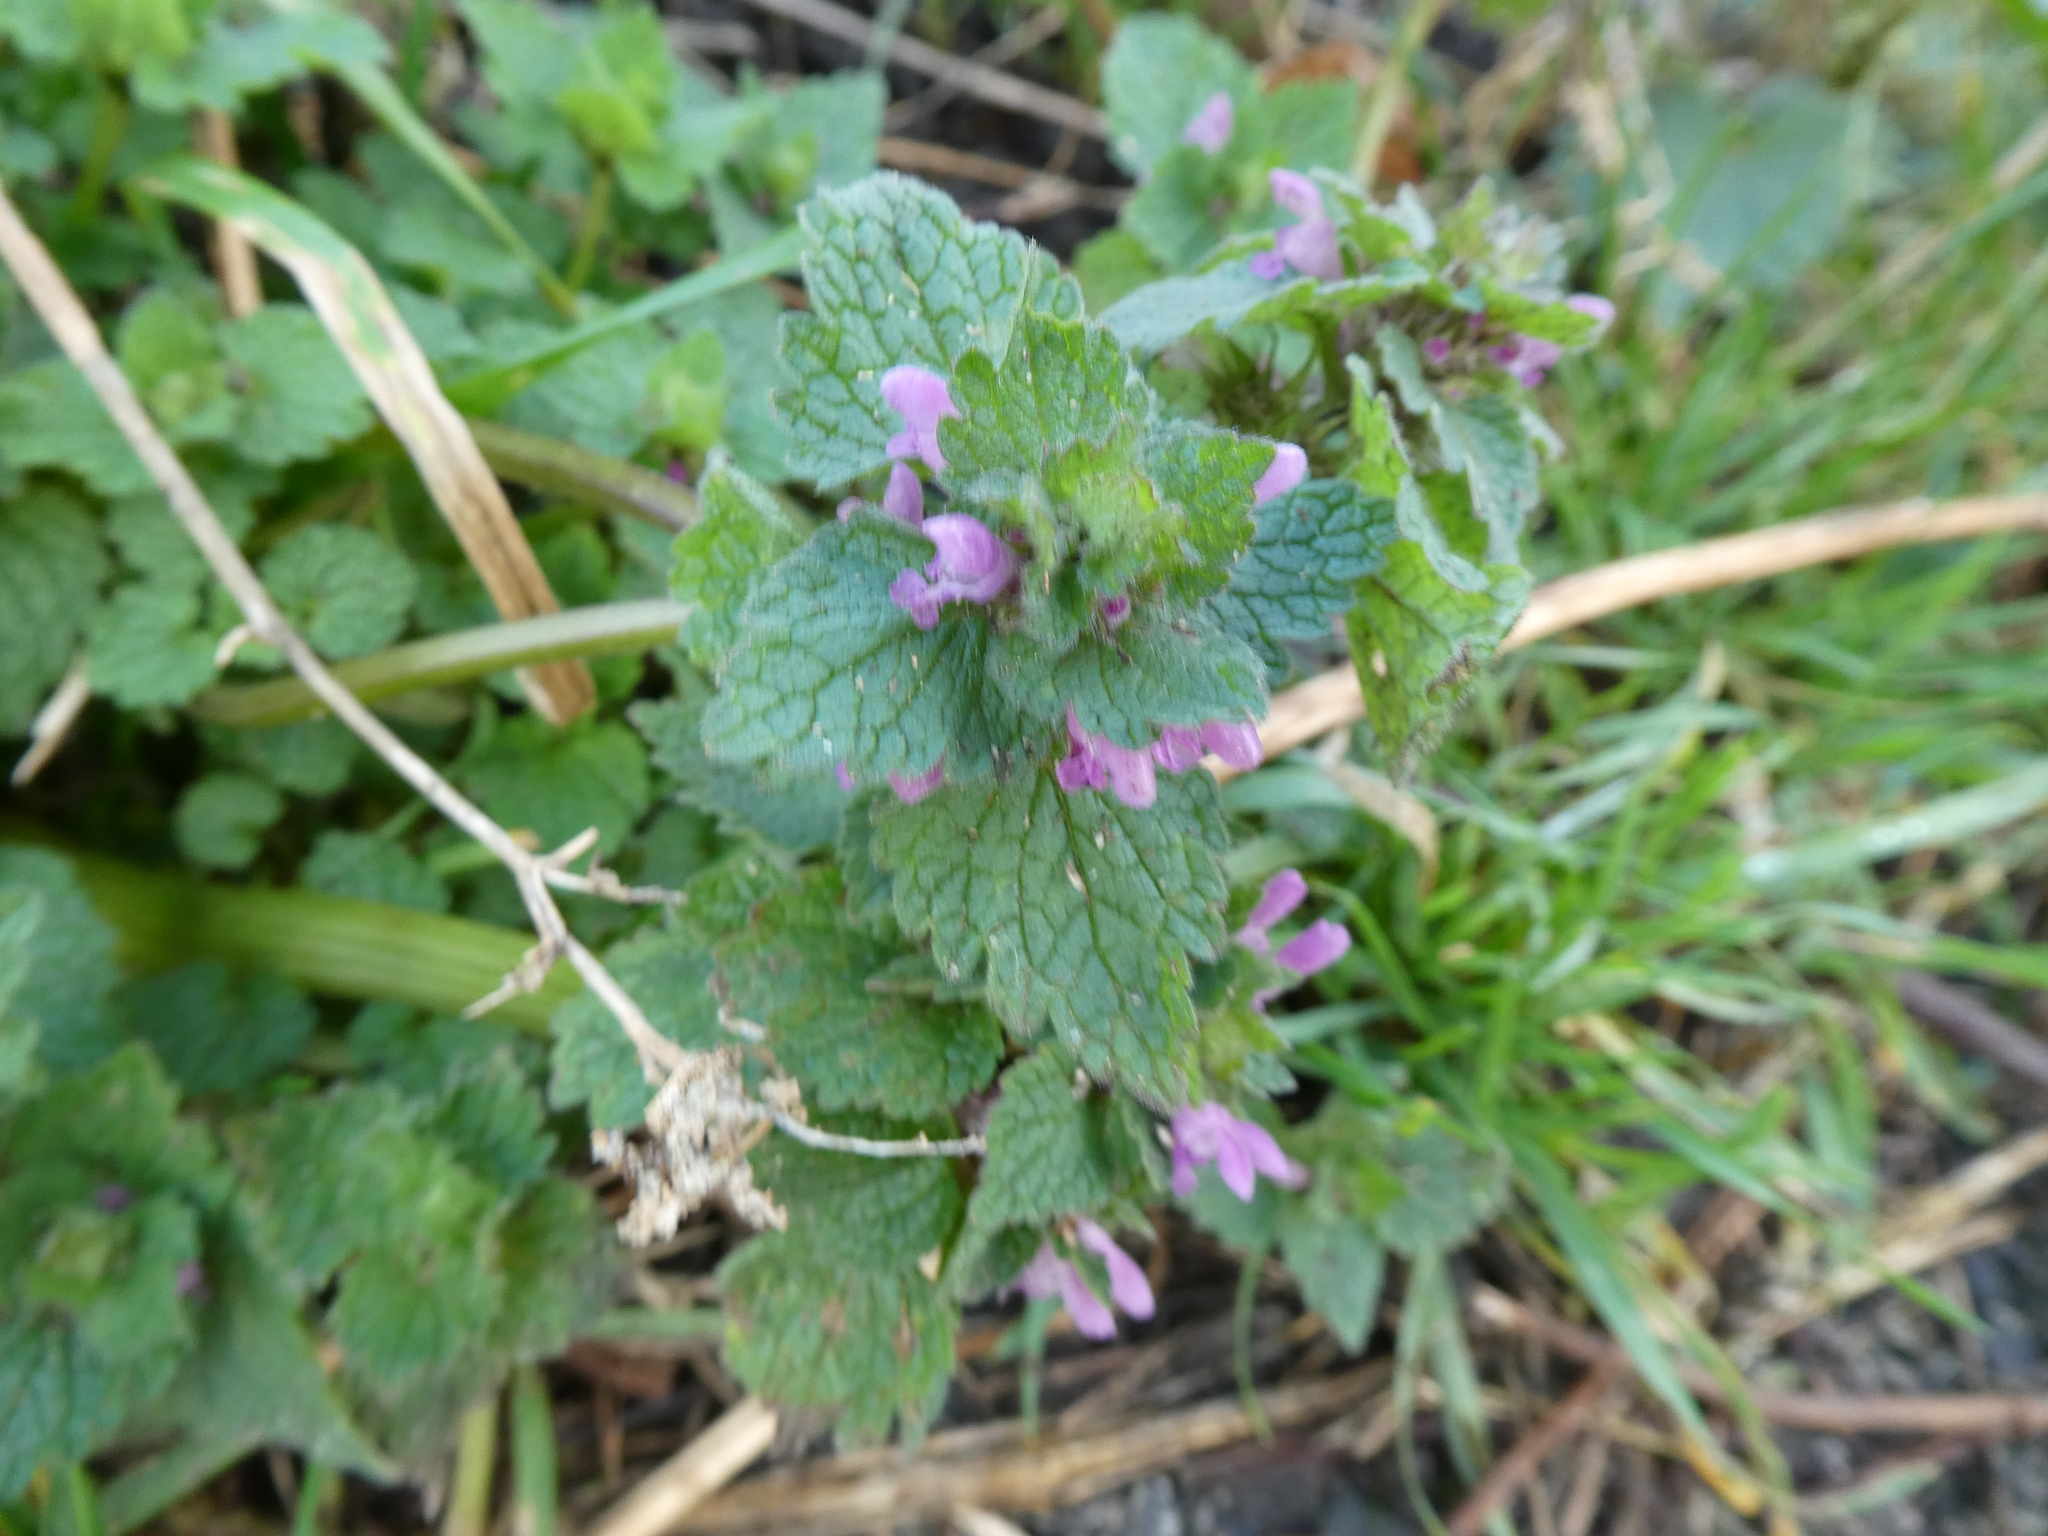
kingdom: Plantae
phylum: Tracheophyta
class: Magnoliopsida
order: Lamiales
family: Lamiaceae
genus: Lamium
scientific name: Lamium purpureum
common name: Red dead-nettle
